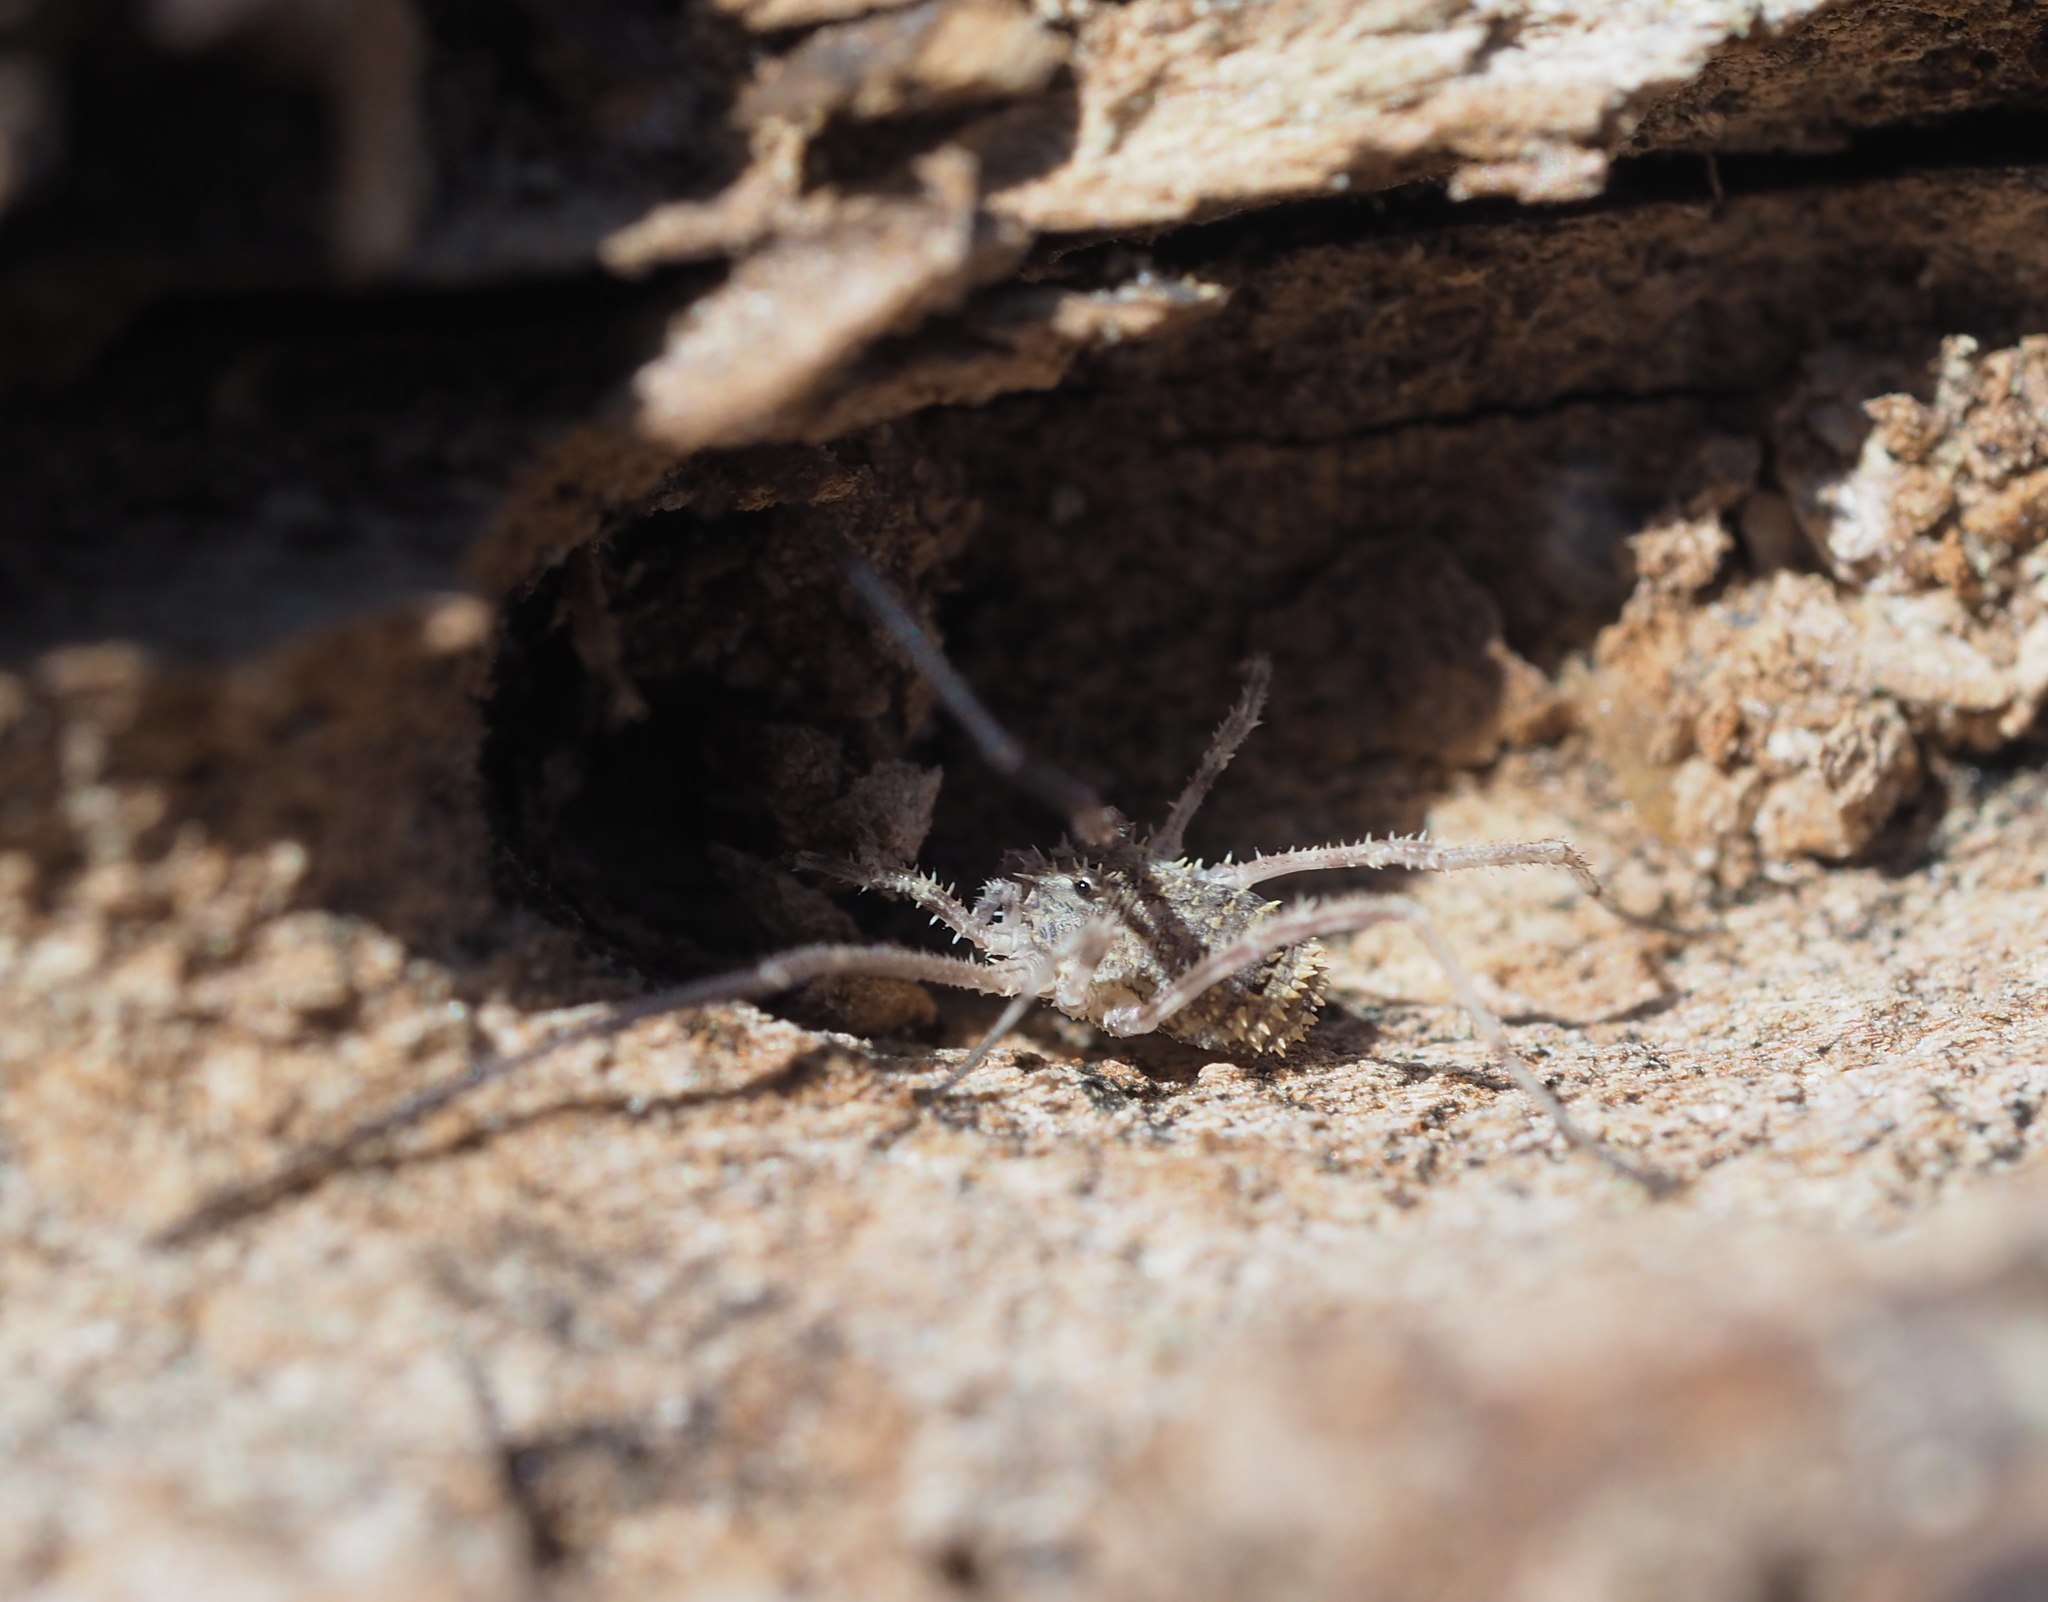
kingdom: Animalia
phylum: Arthropoda
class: Arachnida
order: Opiliones
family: Phalangiidae
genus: Lacinius
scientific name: Lacinius horridus
